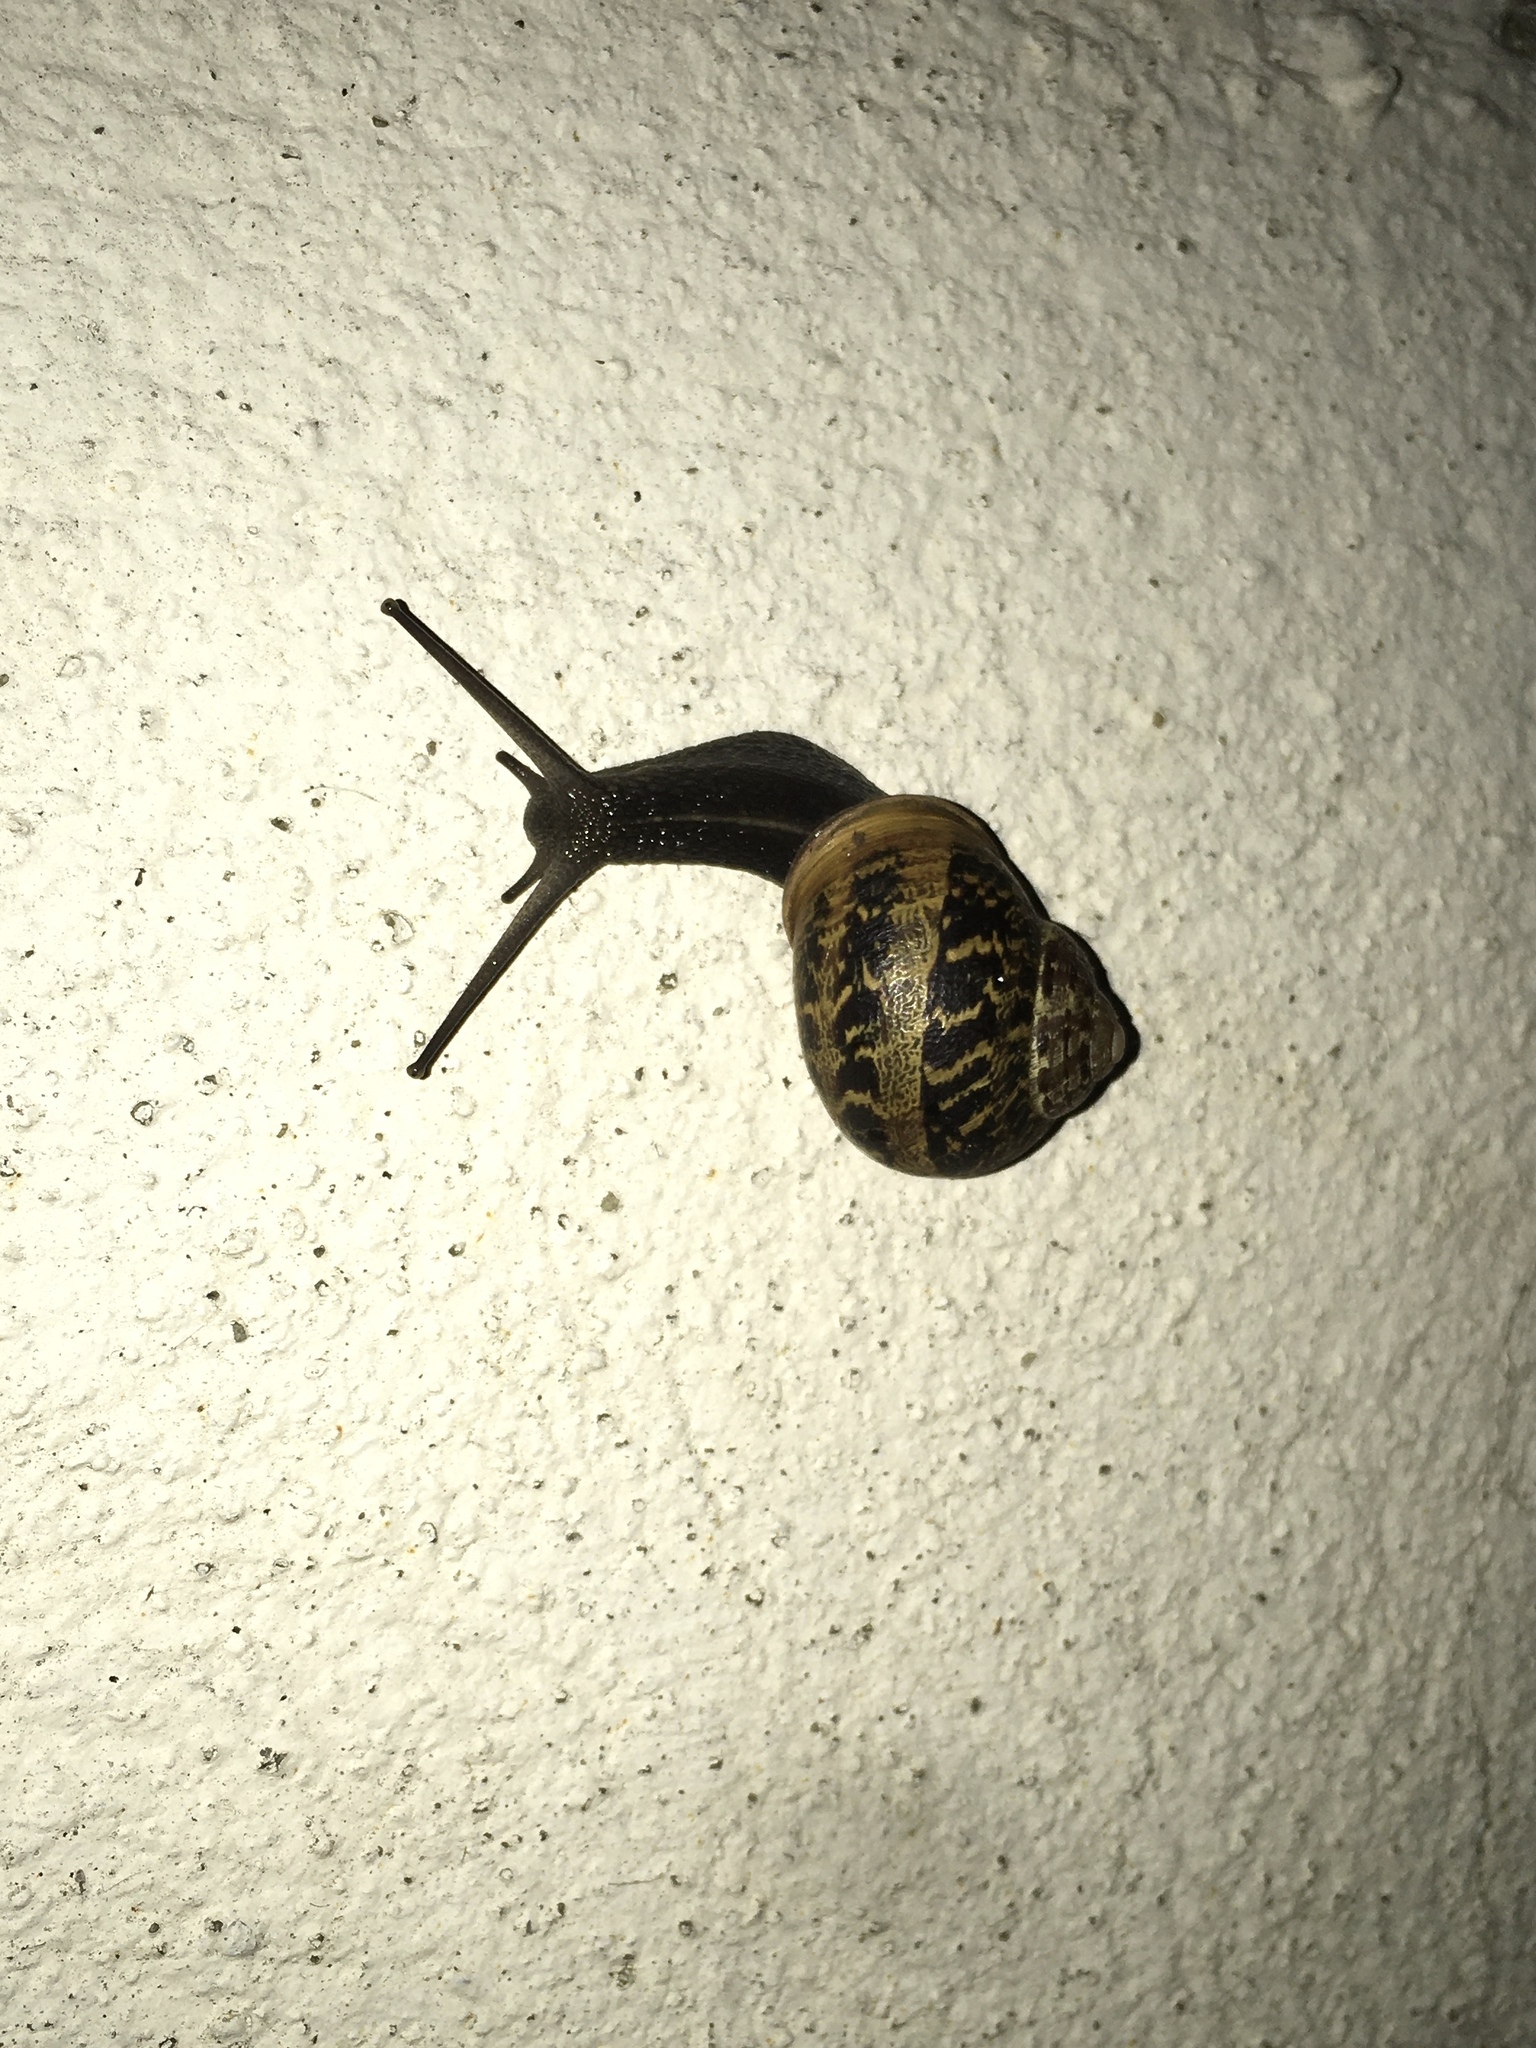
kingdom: Animalia
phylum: Mollusca
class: Gastropoda
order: Stylommatophora
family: Helicidae
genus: Cornu
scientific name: Cornu aspersum
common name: Brown garden snail
